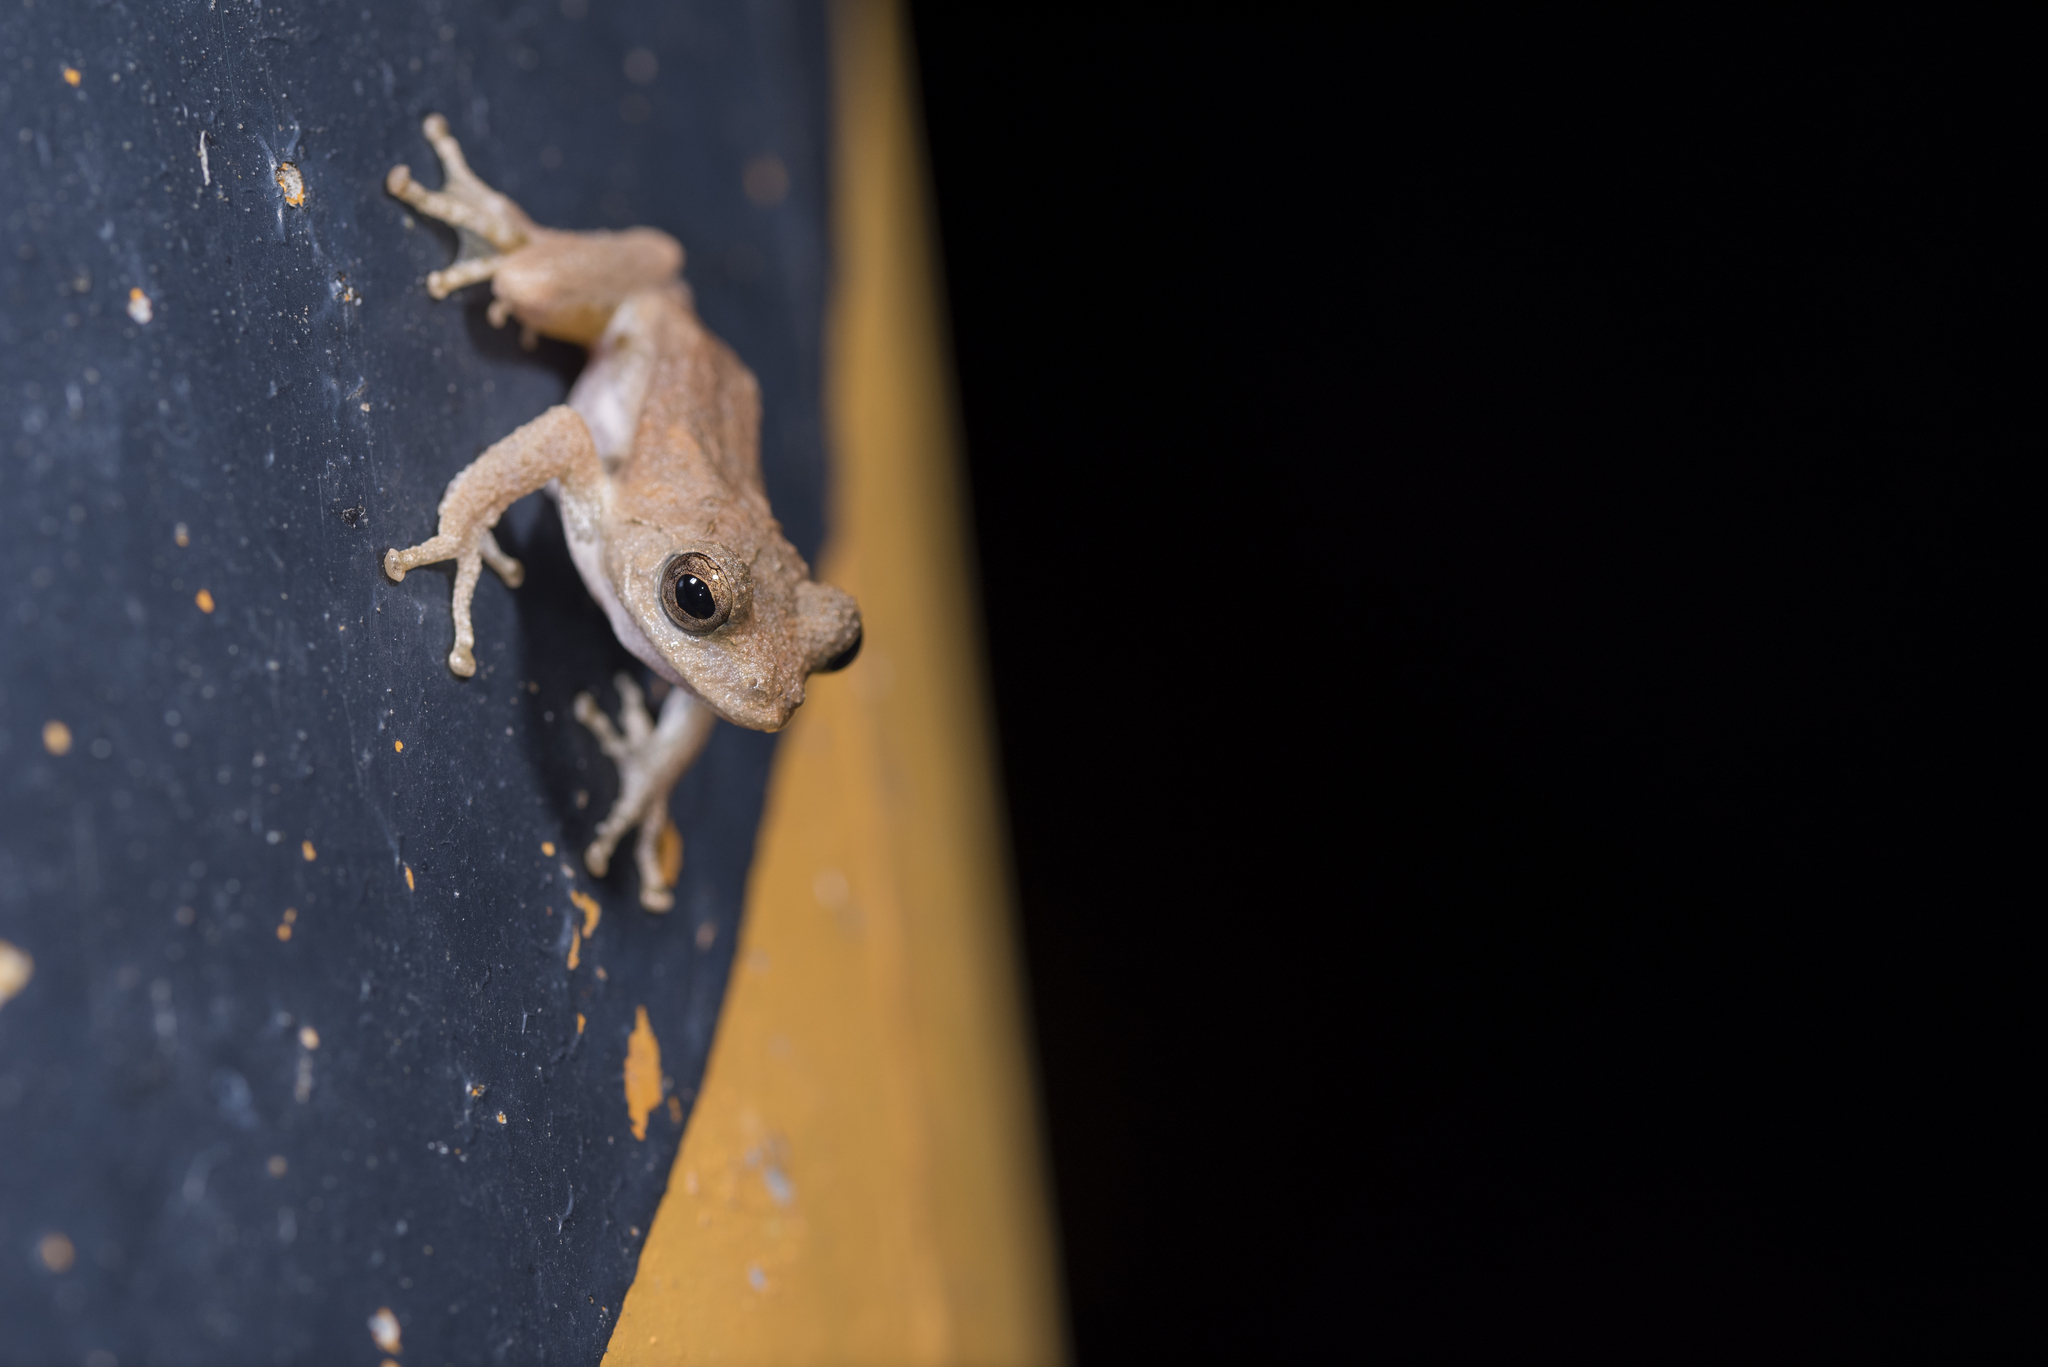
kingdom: Animalia
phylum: Chordata
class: Amphibia
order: Anura
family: Rhacophoridae
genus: Kurixalus
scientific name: Kurixalus idiootocus
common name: Temple treefrog
